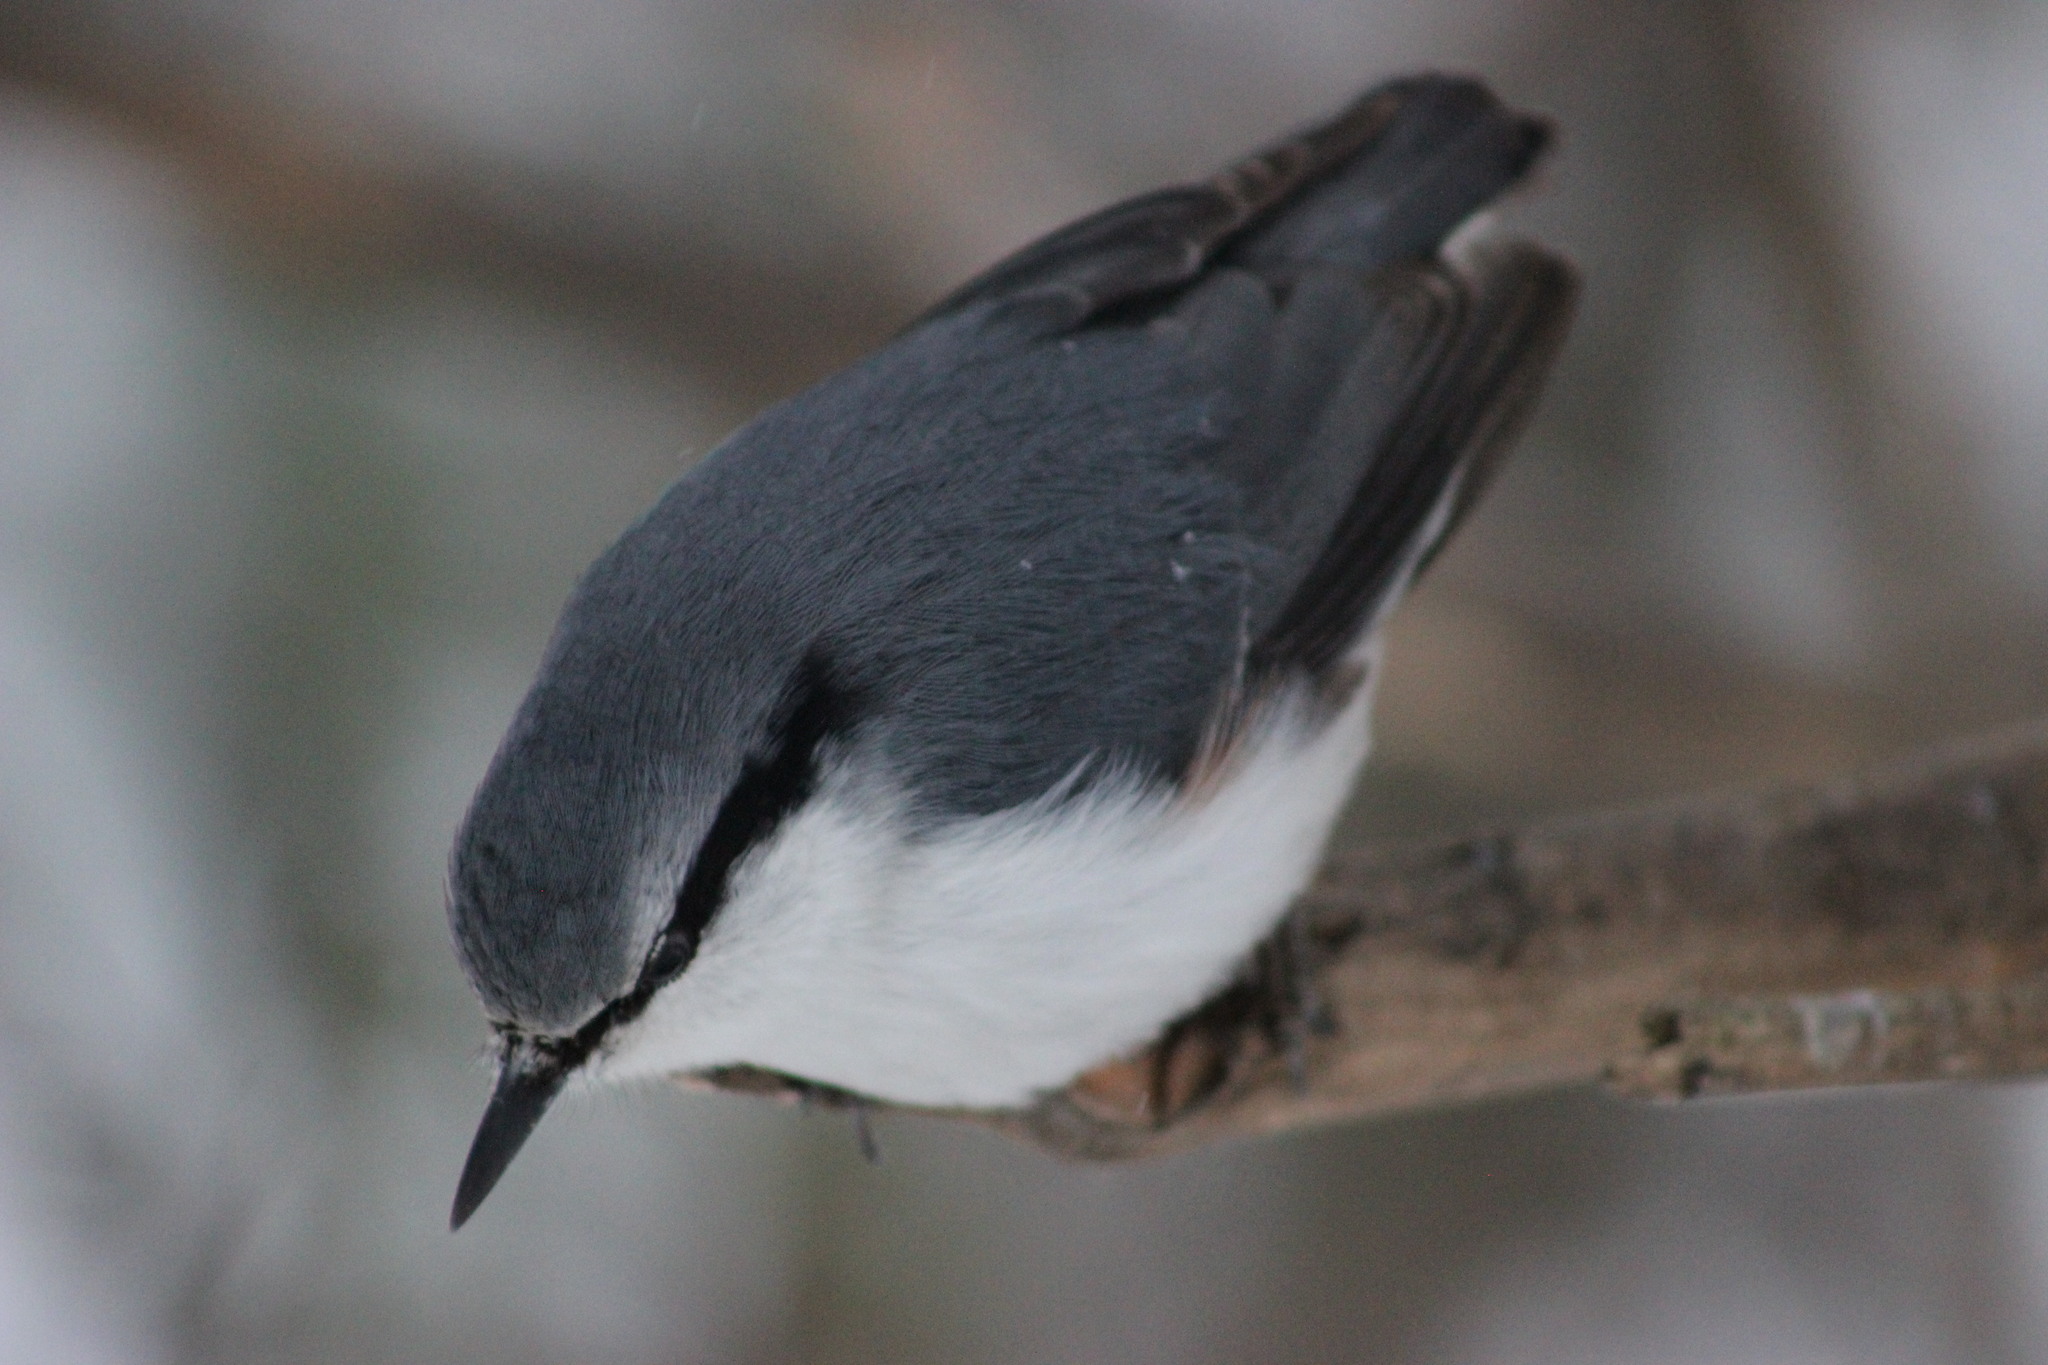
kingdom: Animalia
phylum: Chordata
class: Aves
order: Passeriformes
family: Sittidae
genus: Sitta
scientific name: Sitta europaea
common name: Eurasian nuthatch
